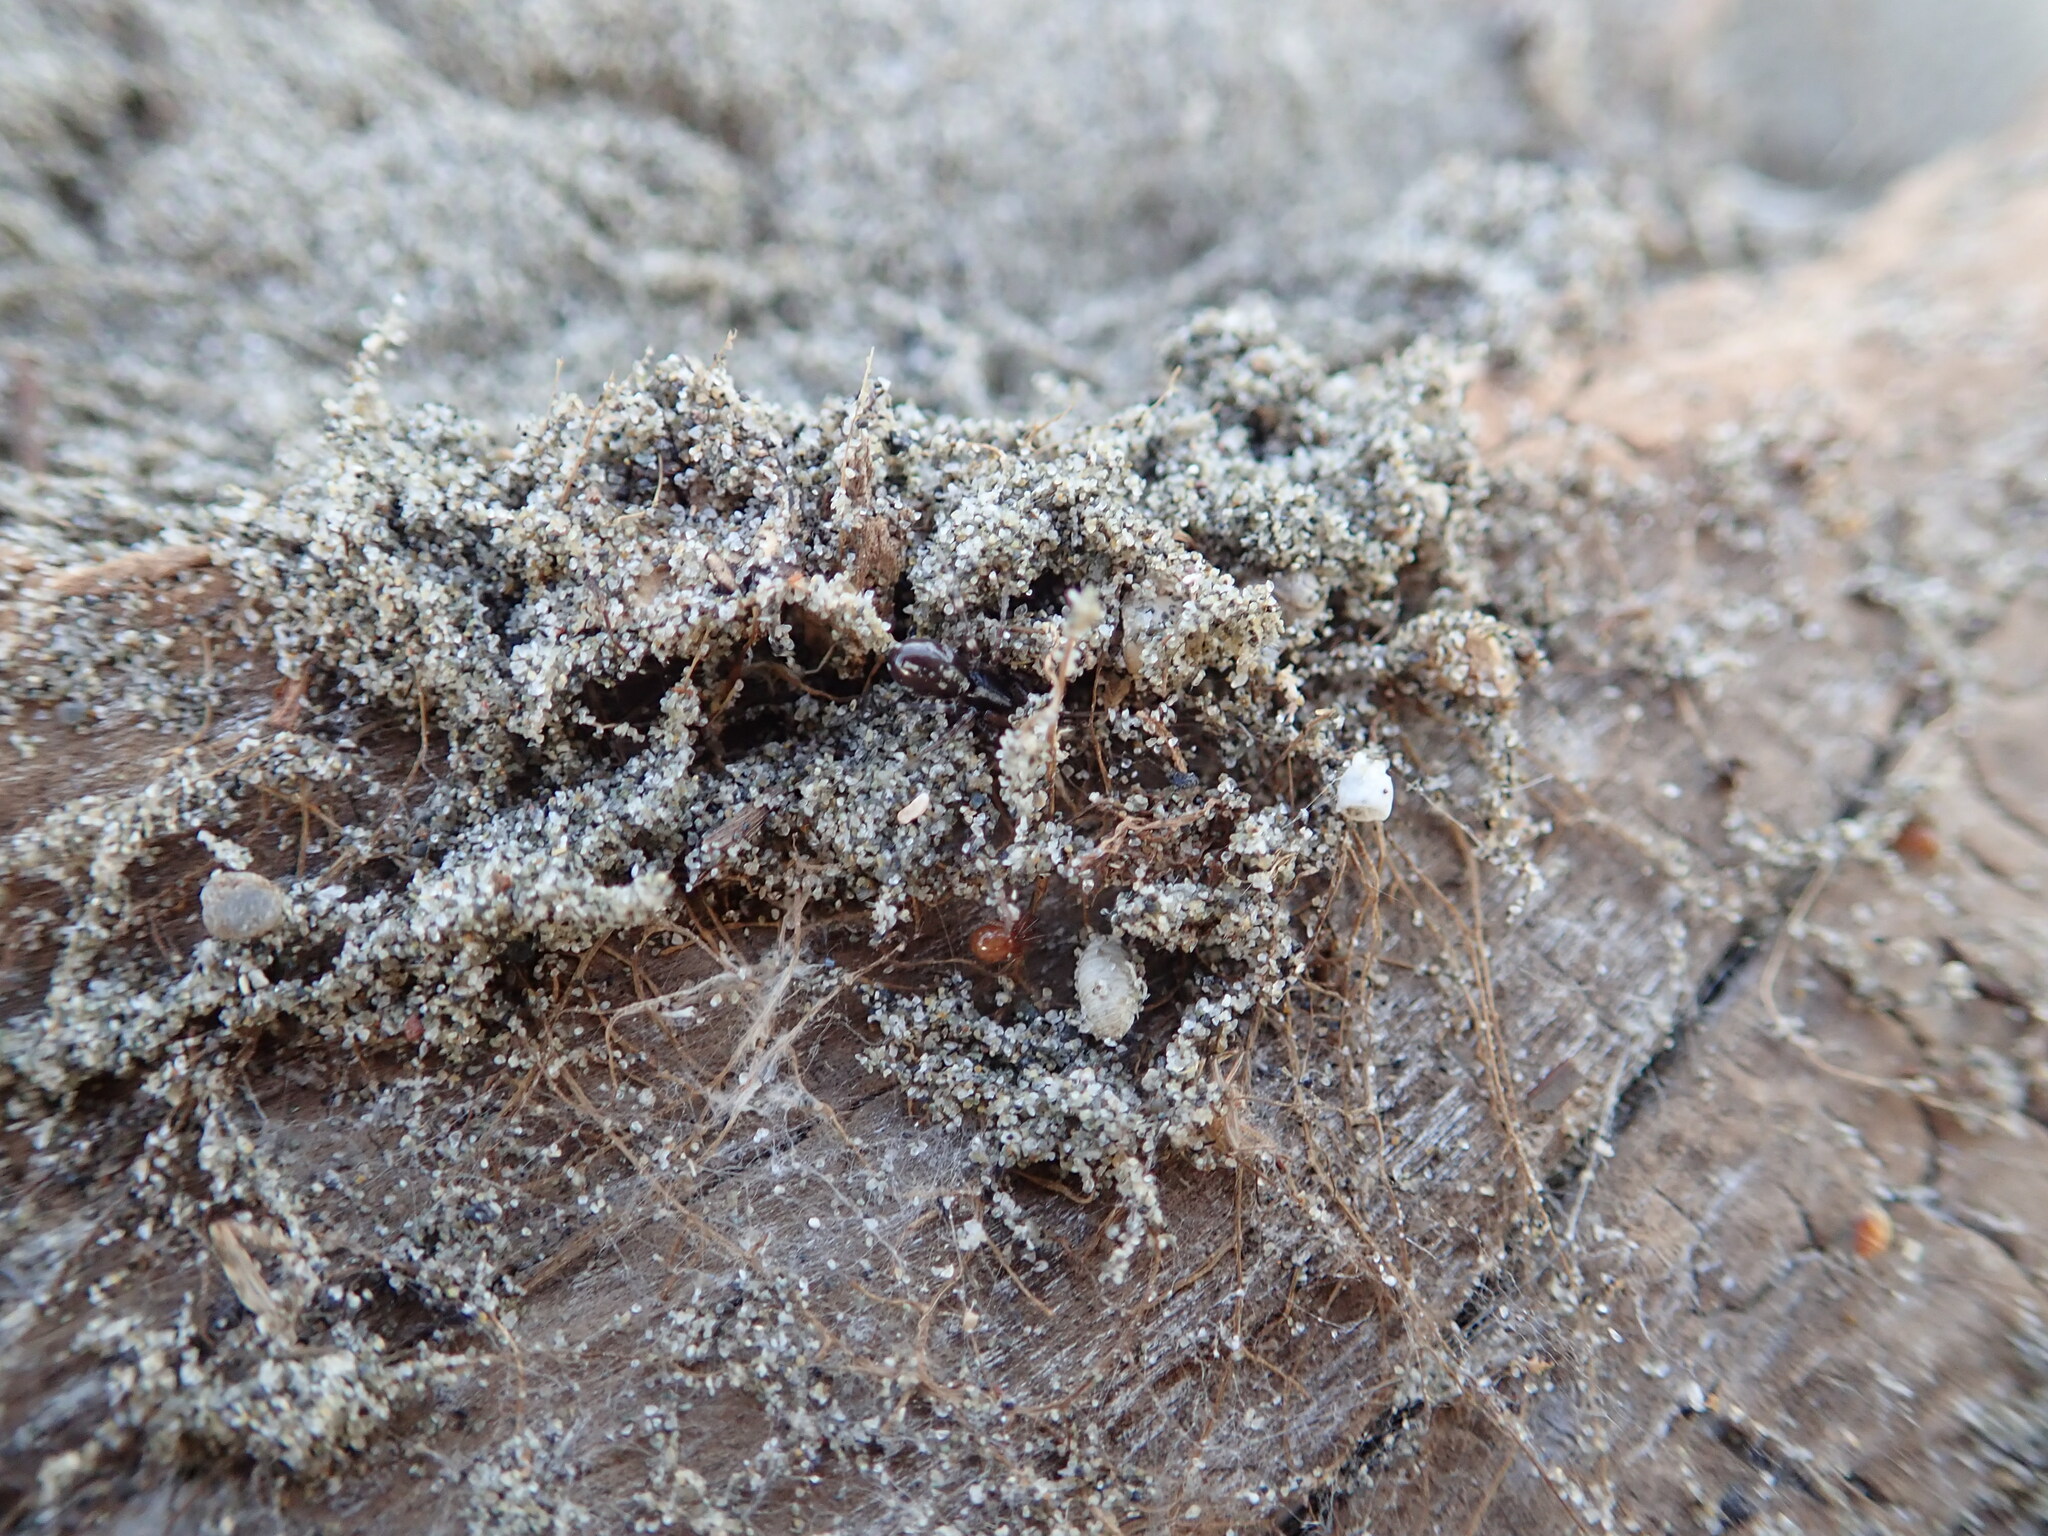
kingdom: Animalia
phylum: Arthropoda
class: Arachnida
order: Araneae
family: Theridiidae
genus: Steatoda
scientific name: Steatoda lepida
